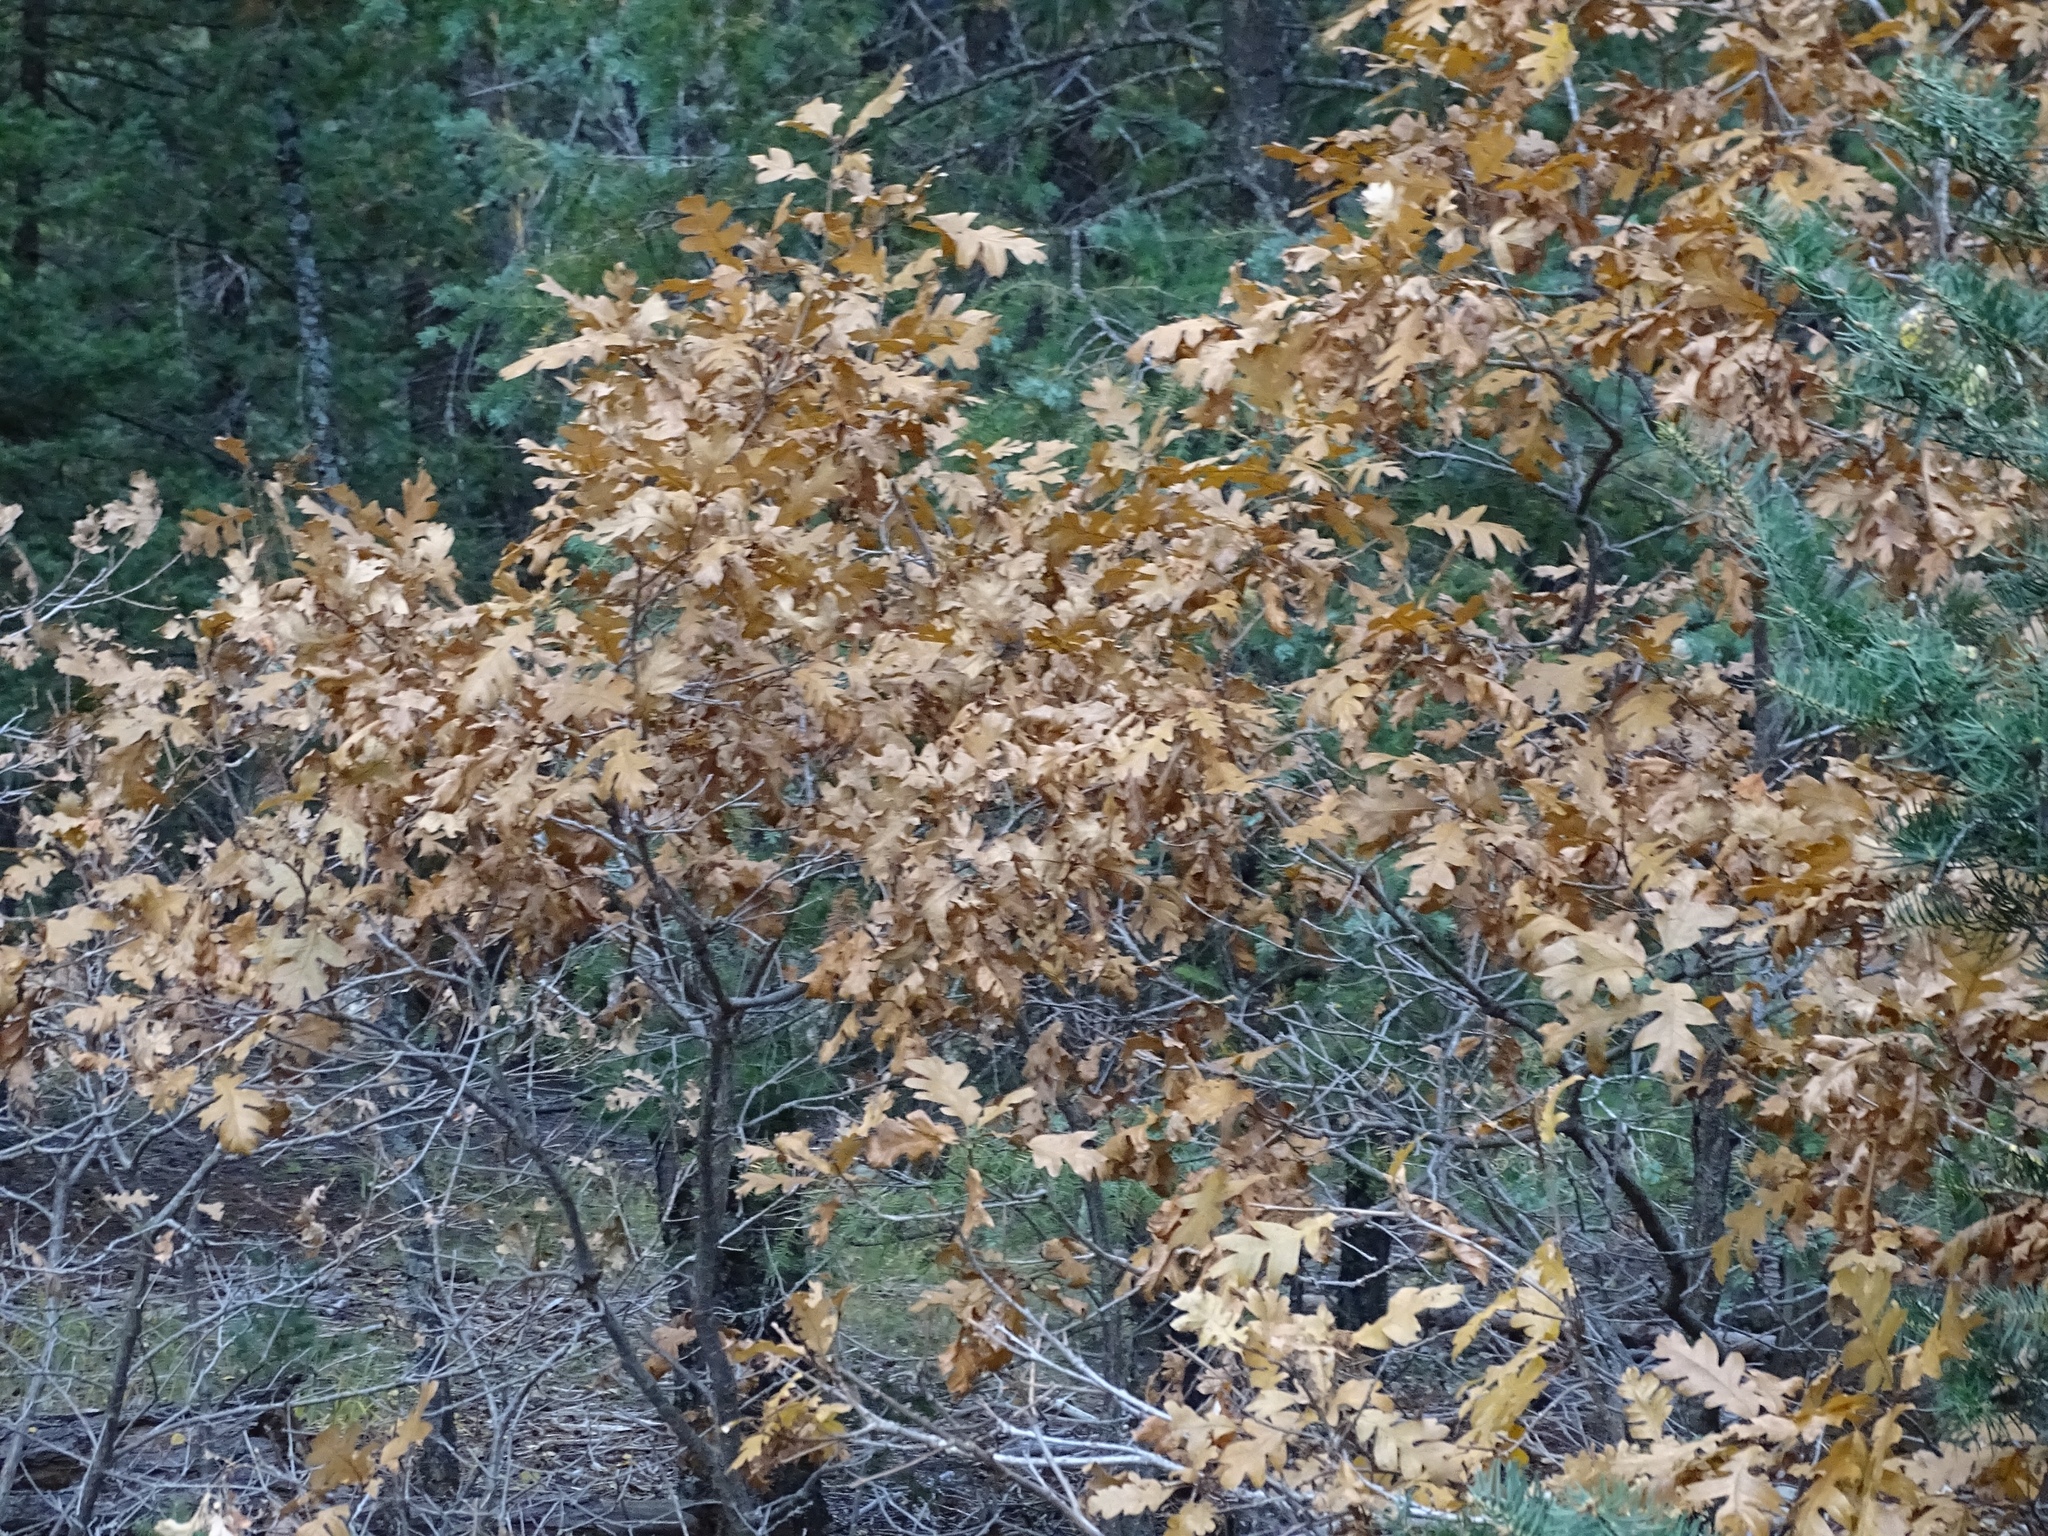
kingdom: Plantae
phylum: Tracheophyta
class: Magnoliopsida
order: Fagales
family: Fagaceae
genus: Quercus
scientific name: Quercus gambelii
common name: Gambel oak
